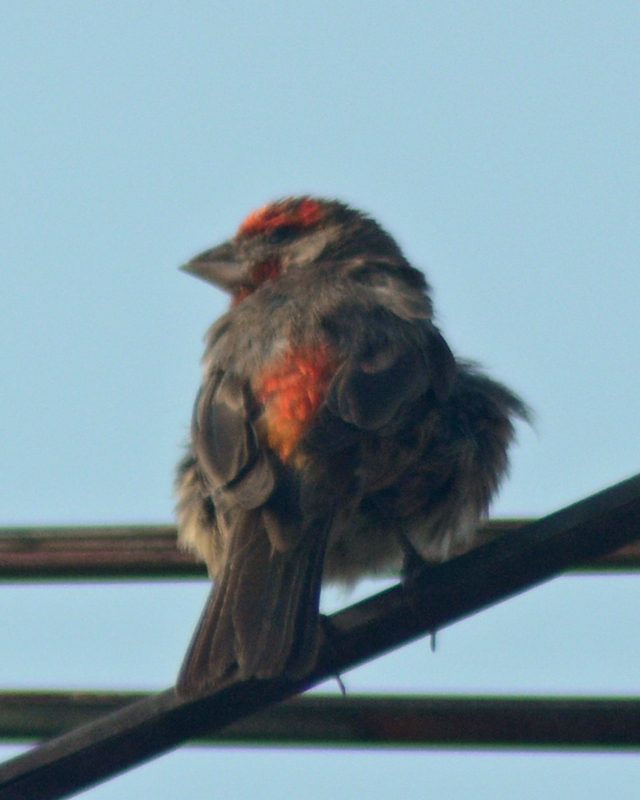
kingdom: Animalia
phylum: Chordata
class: Aves
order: Passeriformes
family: Fringillidae
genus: Haemorhous
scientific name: Haemorhous mexicanus
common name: House finch
